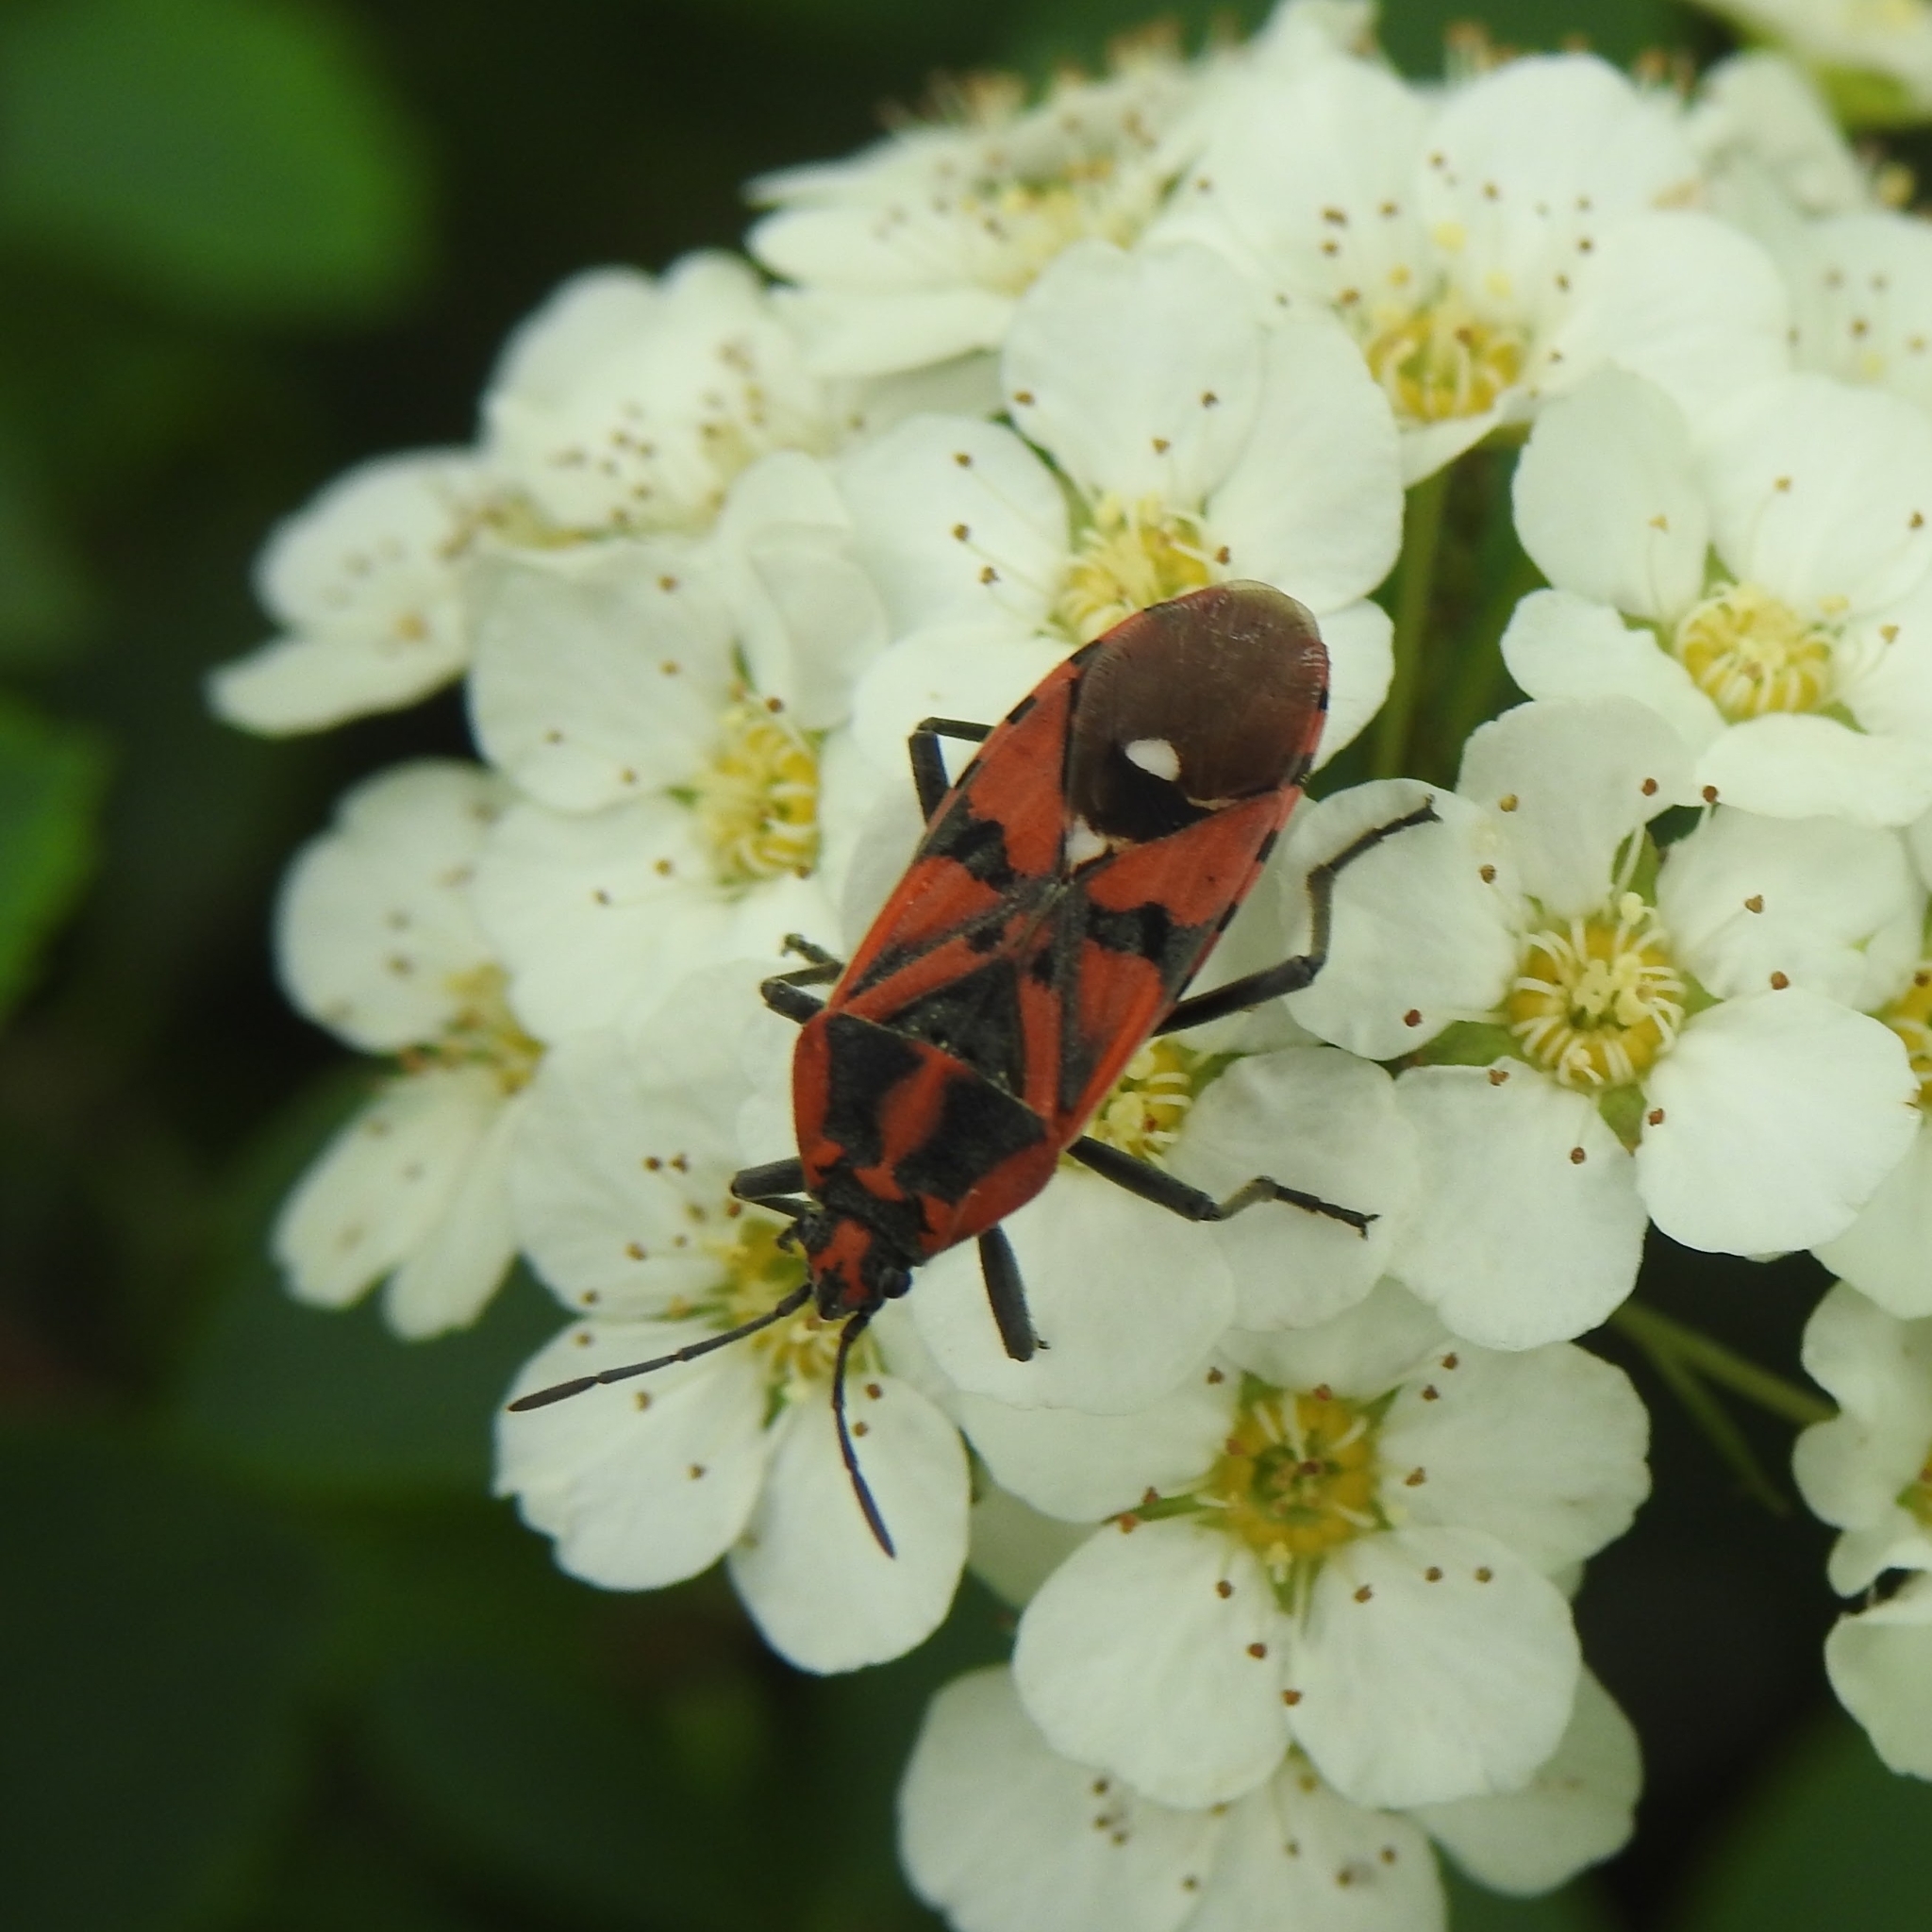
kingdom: Animalia
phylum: Arthropoda
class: Insecta
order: Hemiptera
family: Lygaeidae
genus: Spilostethus
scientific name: Spilostethus pandurus
